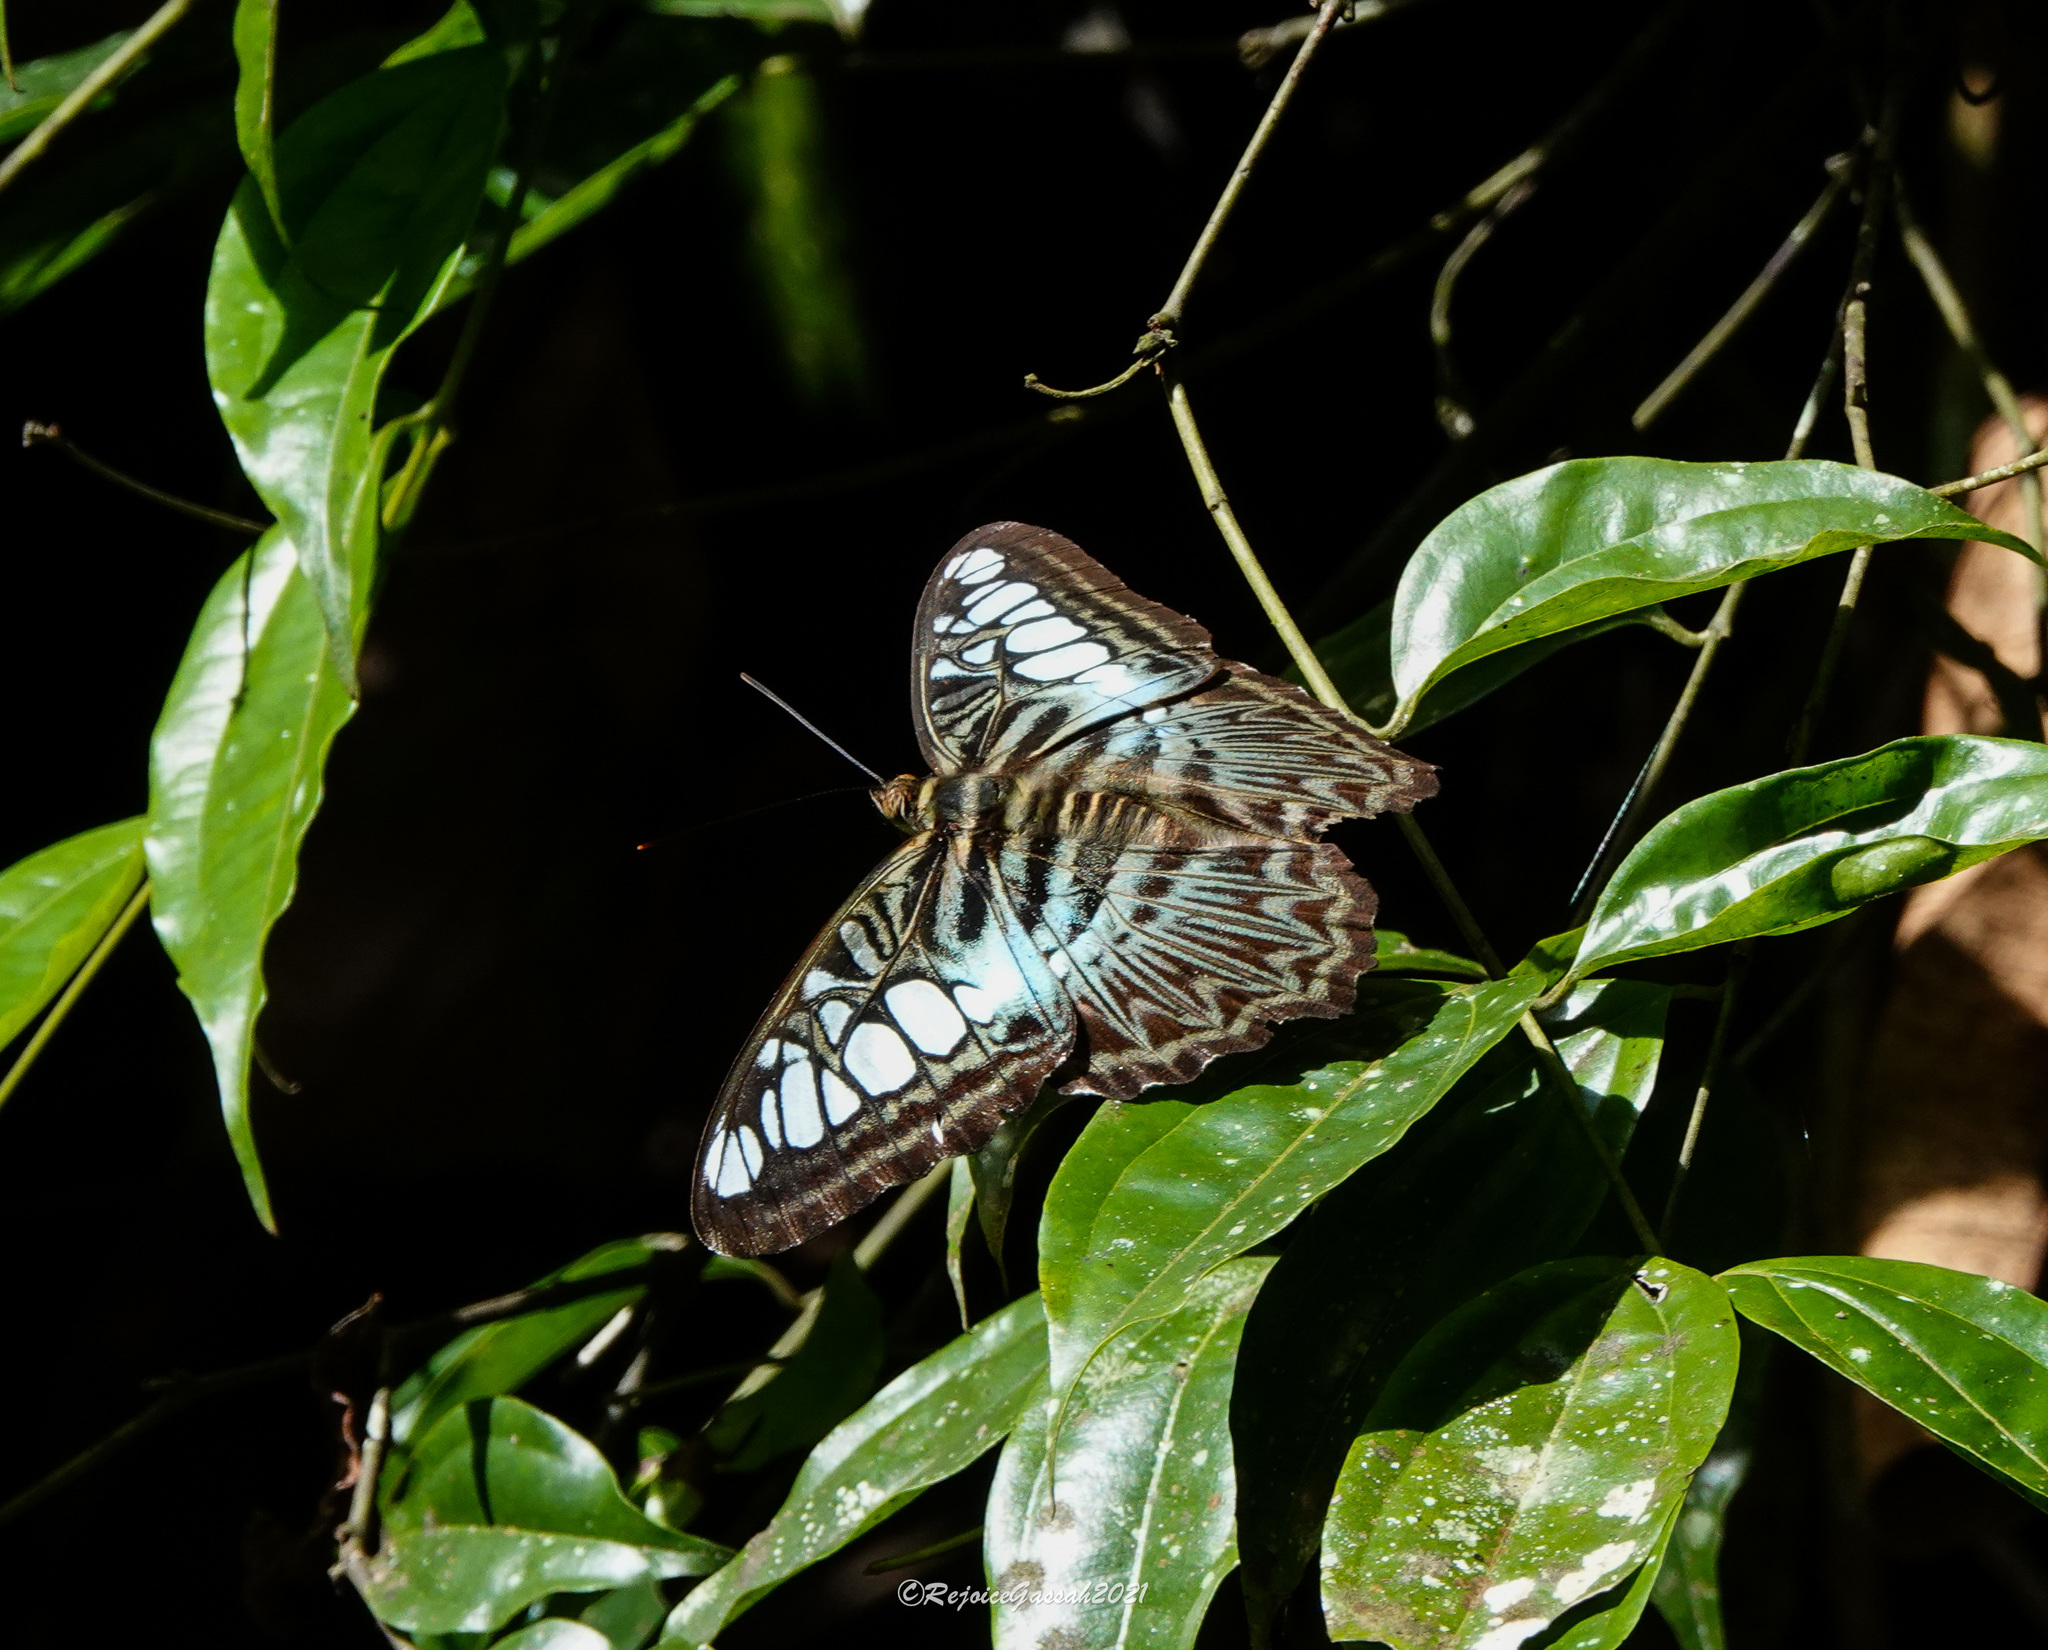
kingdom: Animalia
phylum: Arthropoda
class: Insecta
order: Lepidoptera
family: Nymphalidae
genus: Kallima
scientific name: Kallima sylvia
